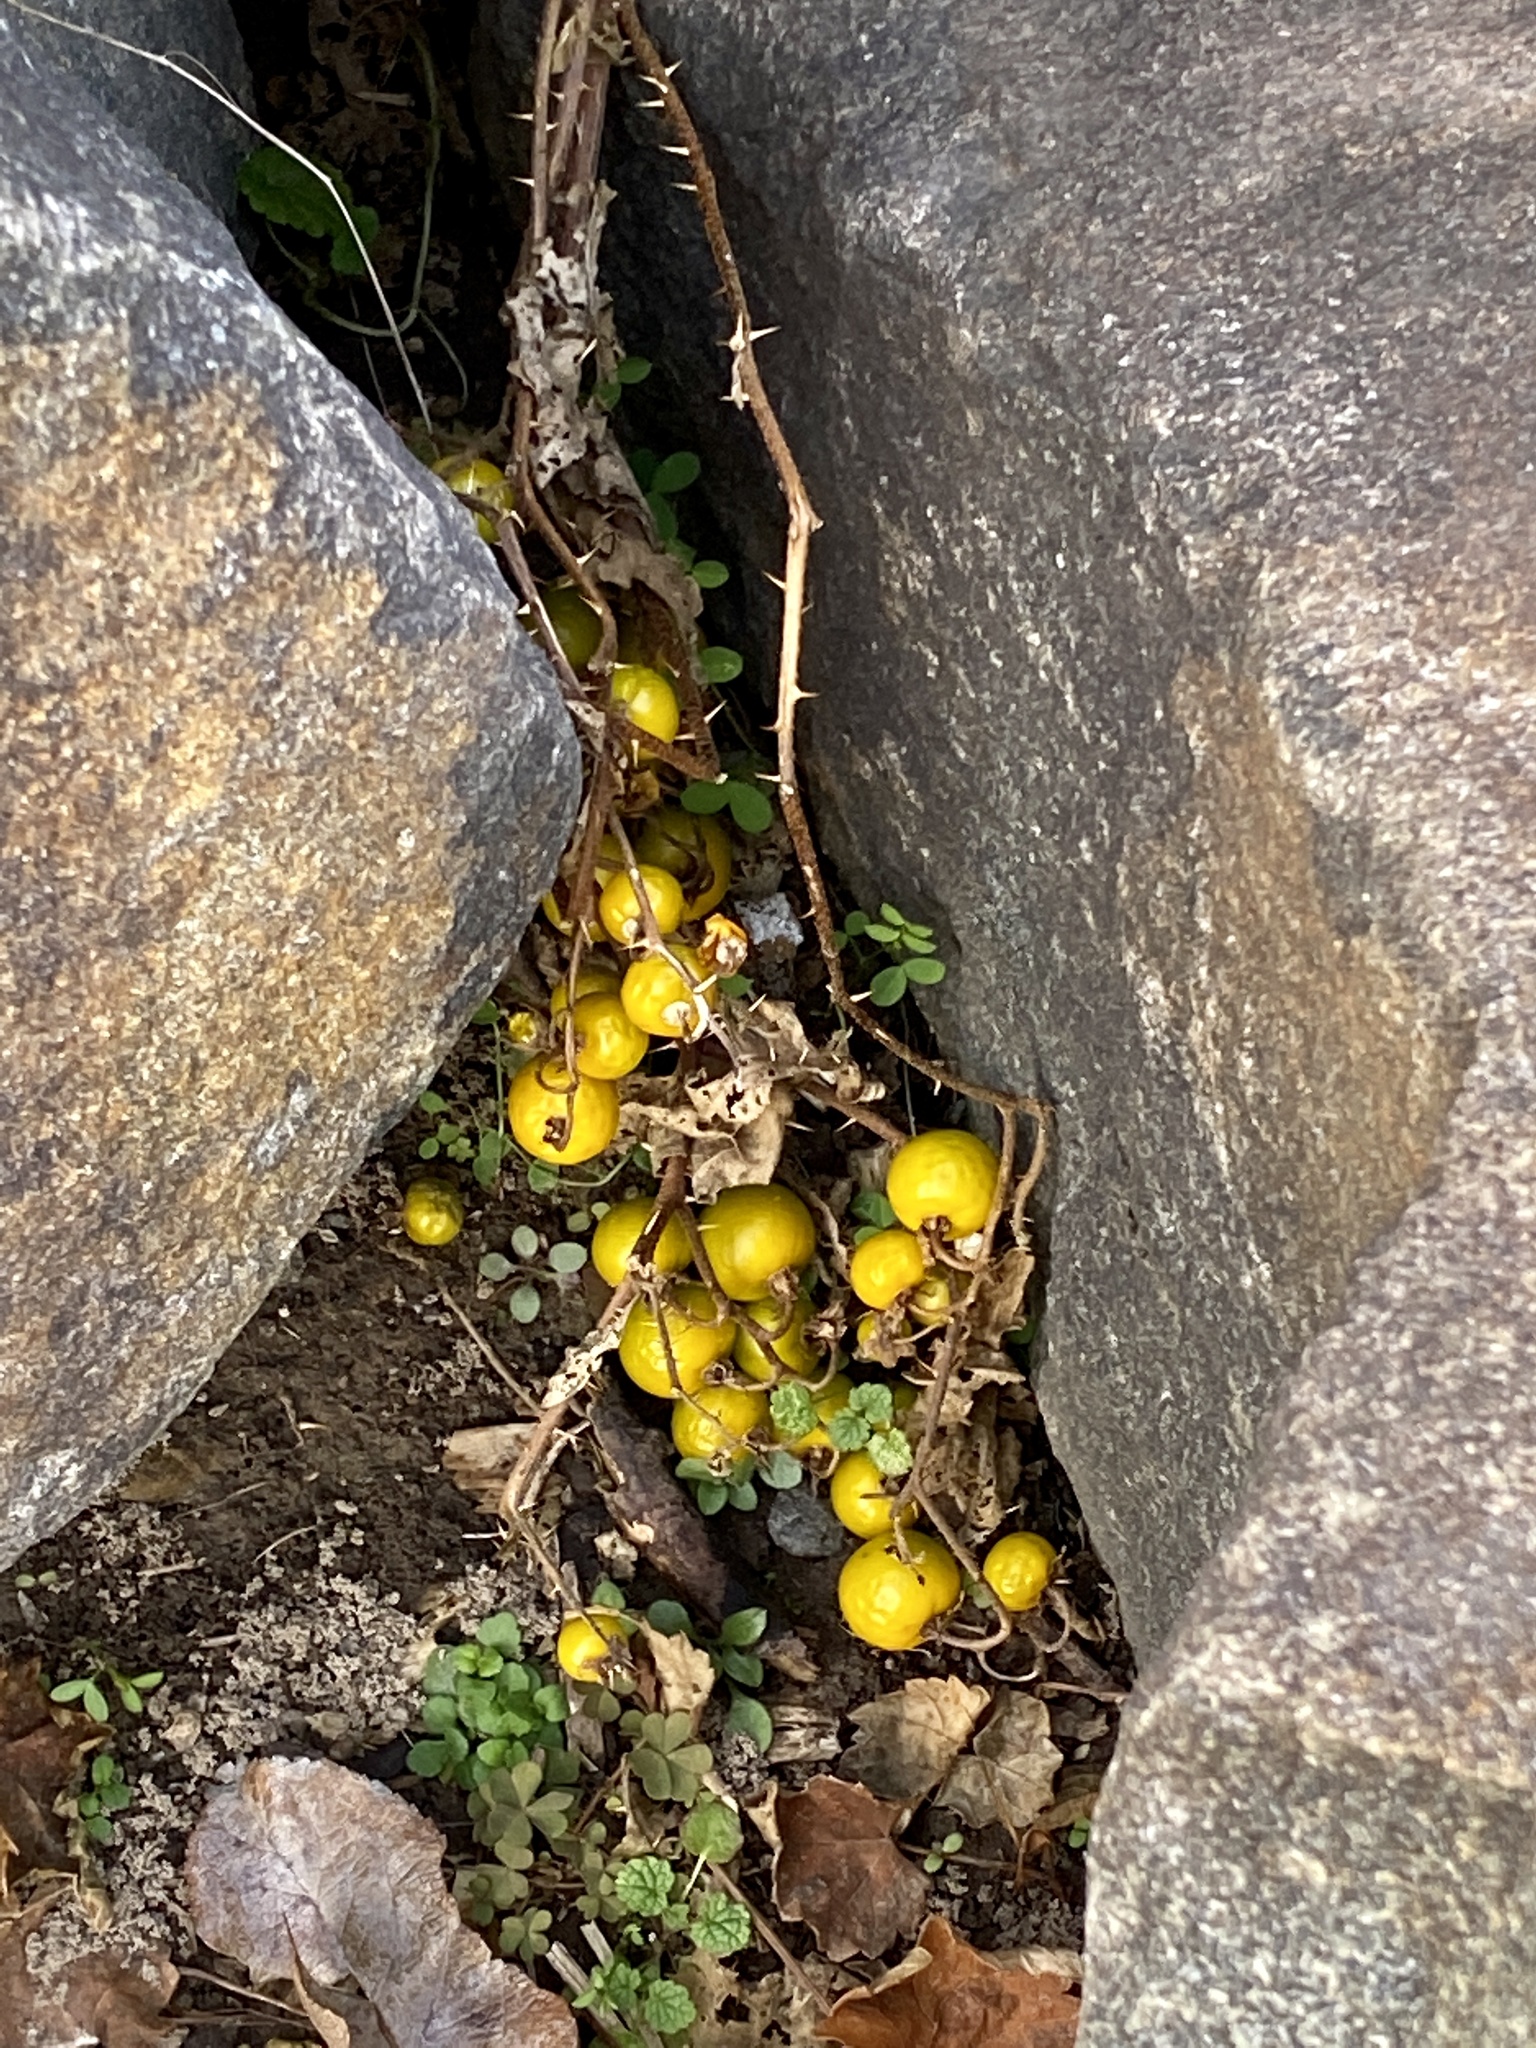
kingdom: Plantae
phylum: Tracheophyta
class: Magnoliopsida
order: Solanales
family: Solanaceae
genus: Solanum
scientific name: Solanum carolinense
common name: Horse-nettle
